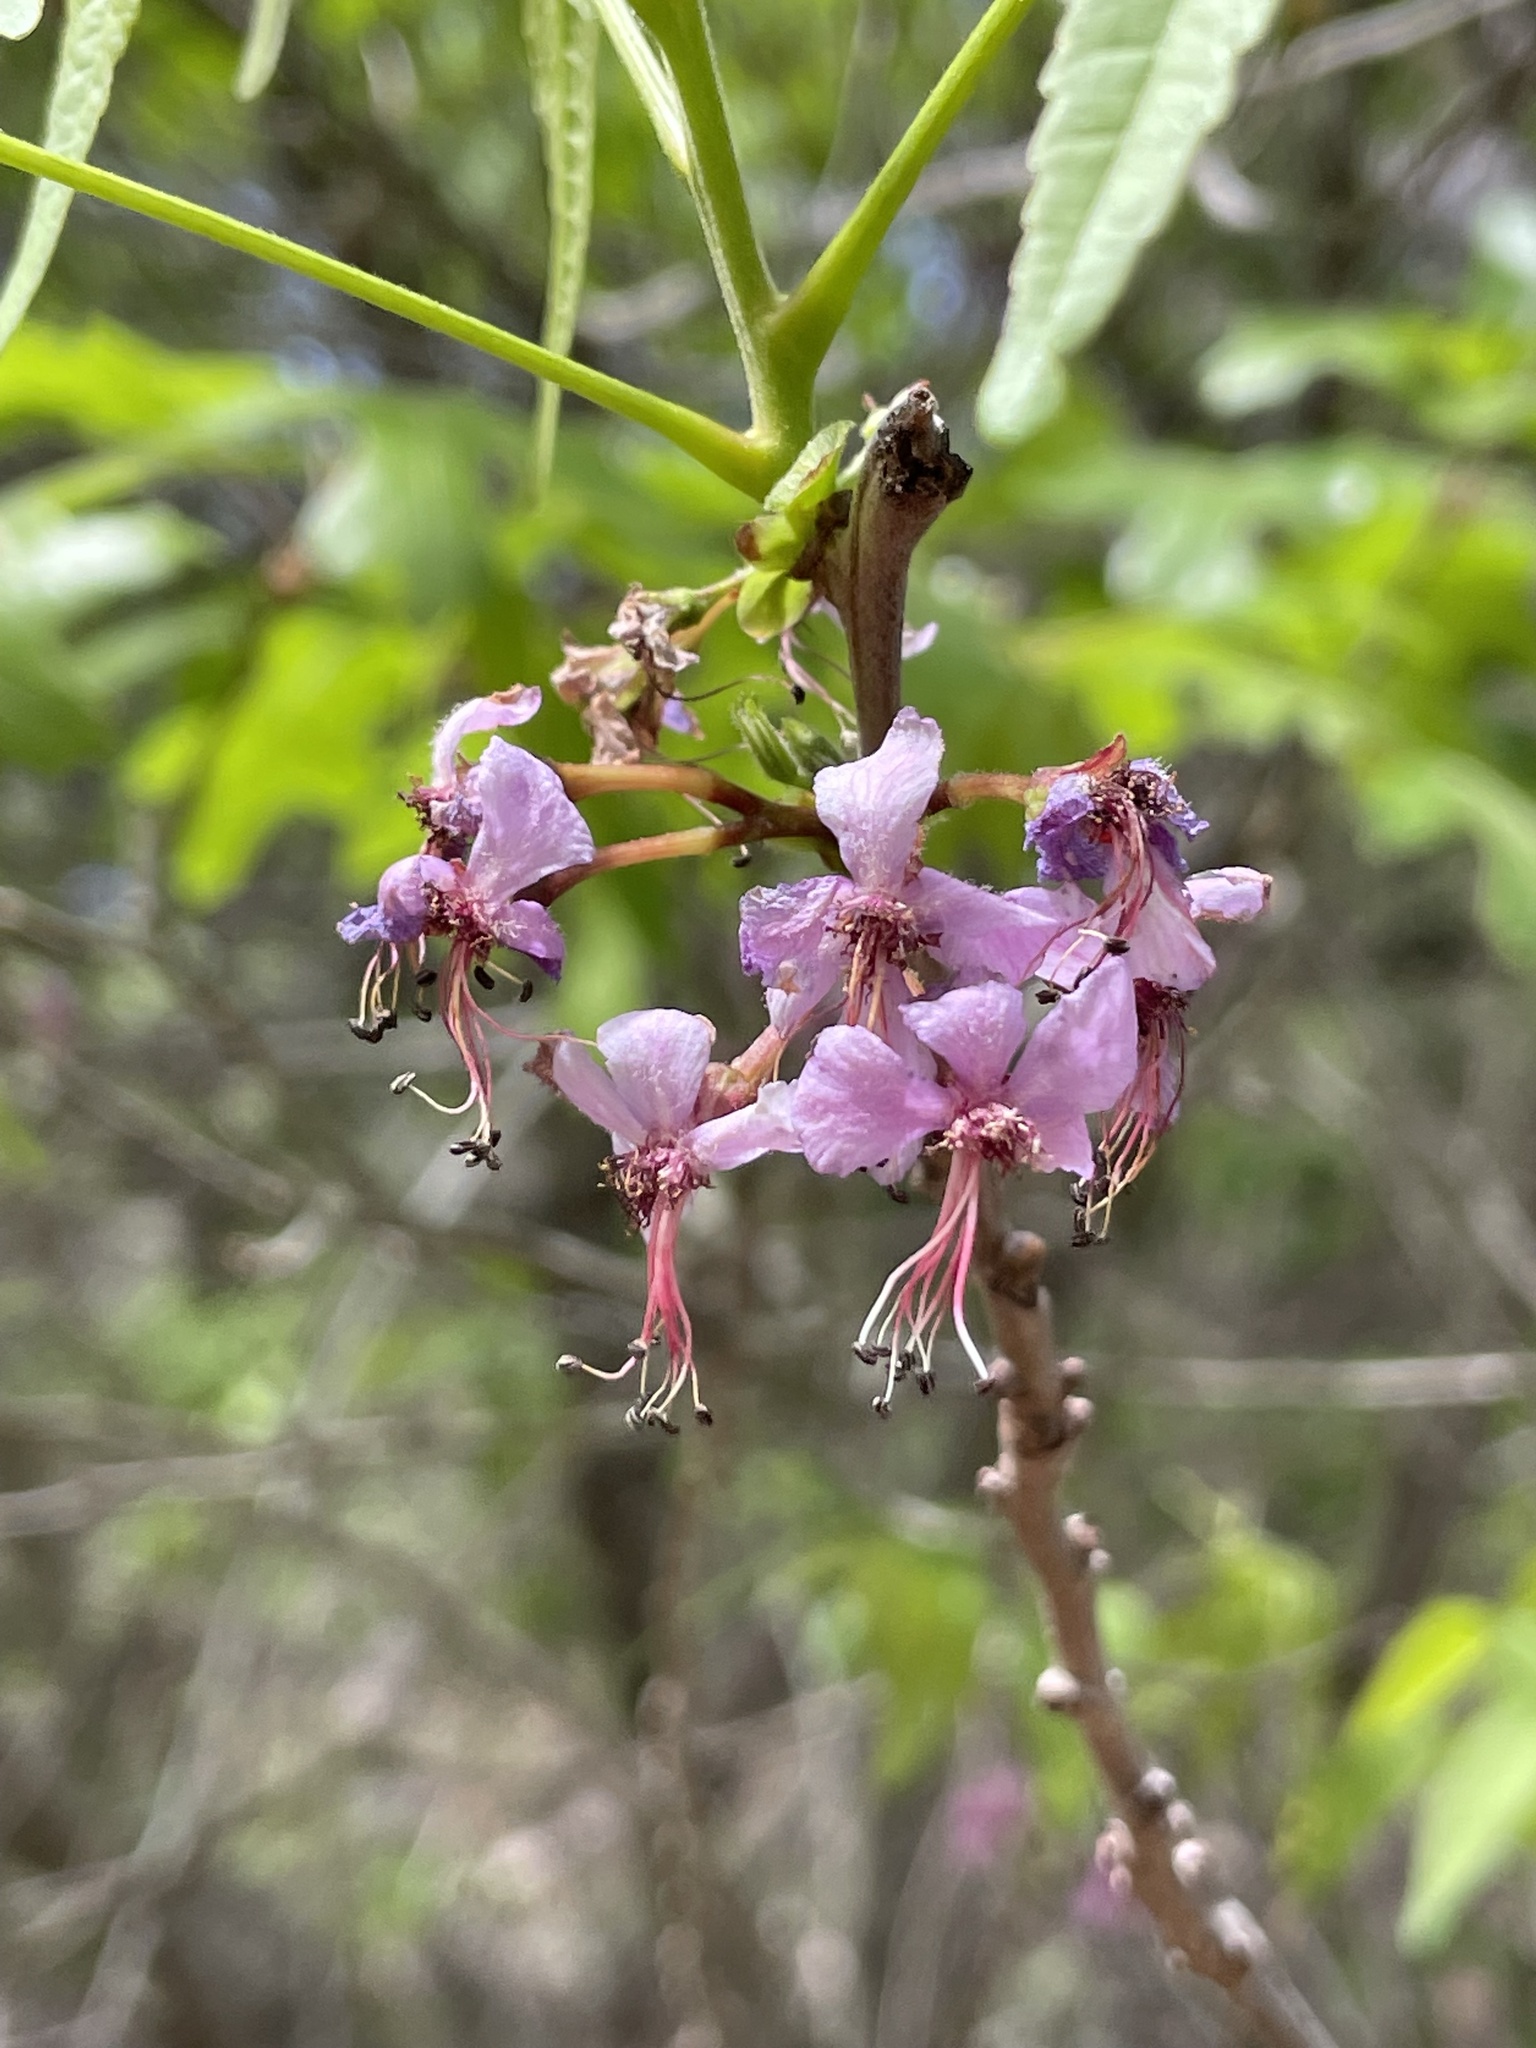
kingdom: Plantae
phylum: Tracheophyta
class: Magnoliopsida
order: Sapindales
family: Sapindaceae
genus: Ungnadia
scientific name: Ungnadia speciosa
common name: Texas-buckeye
